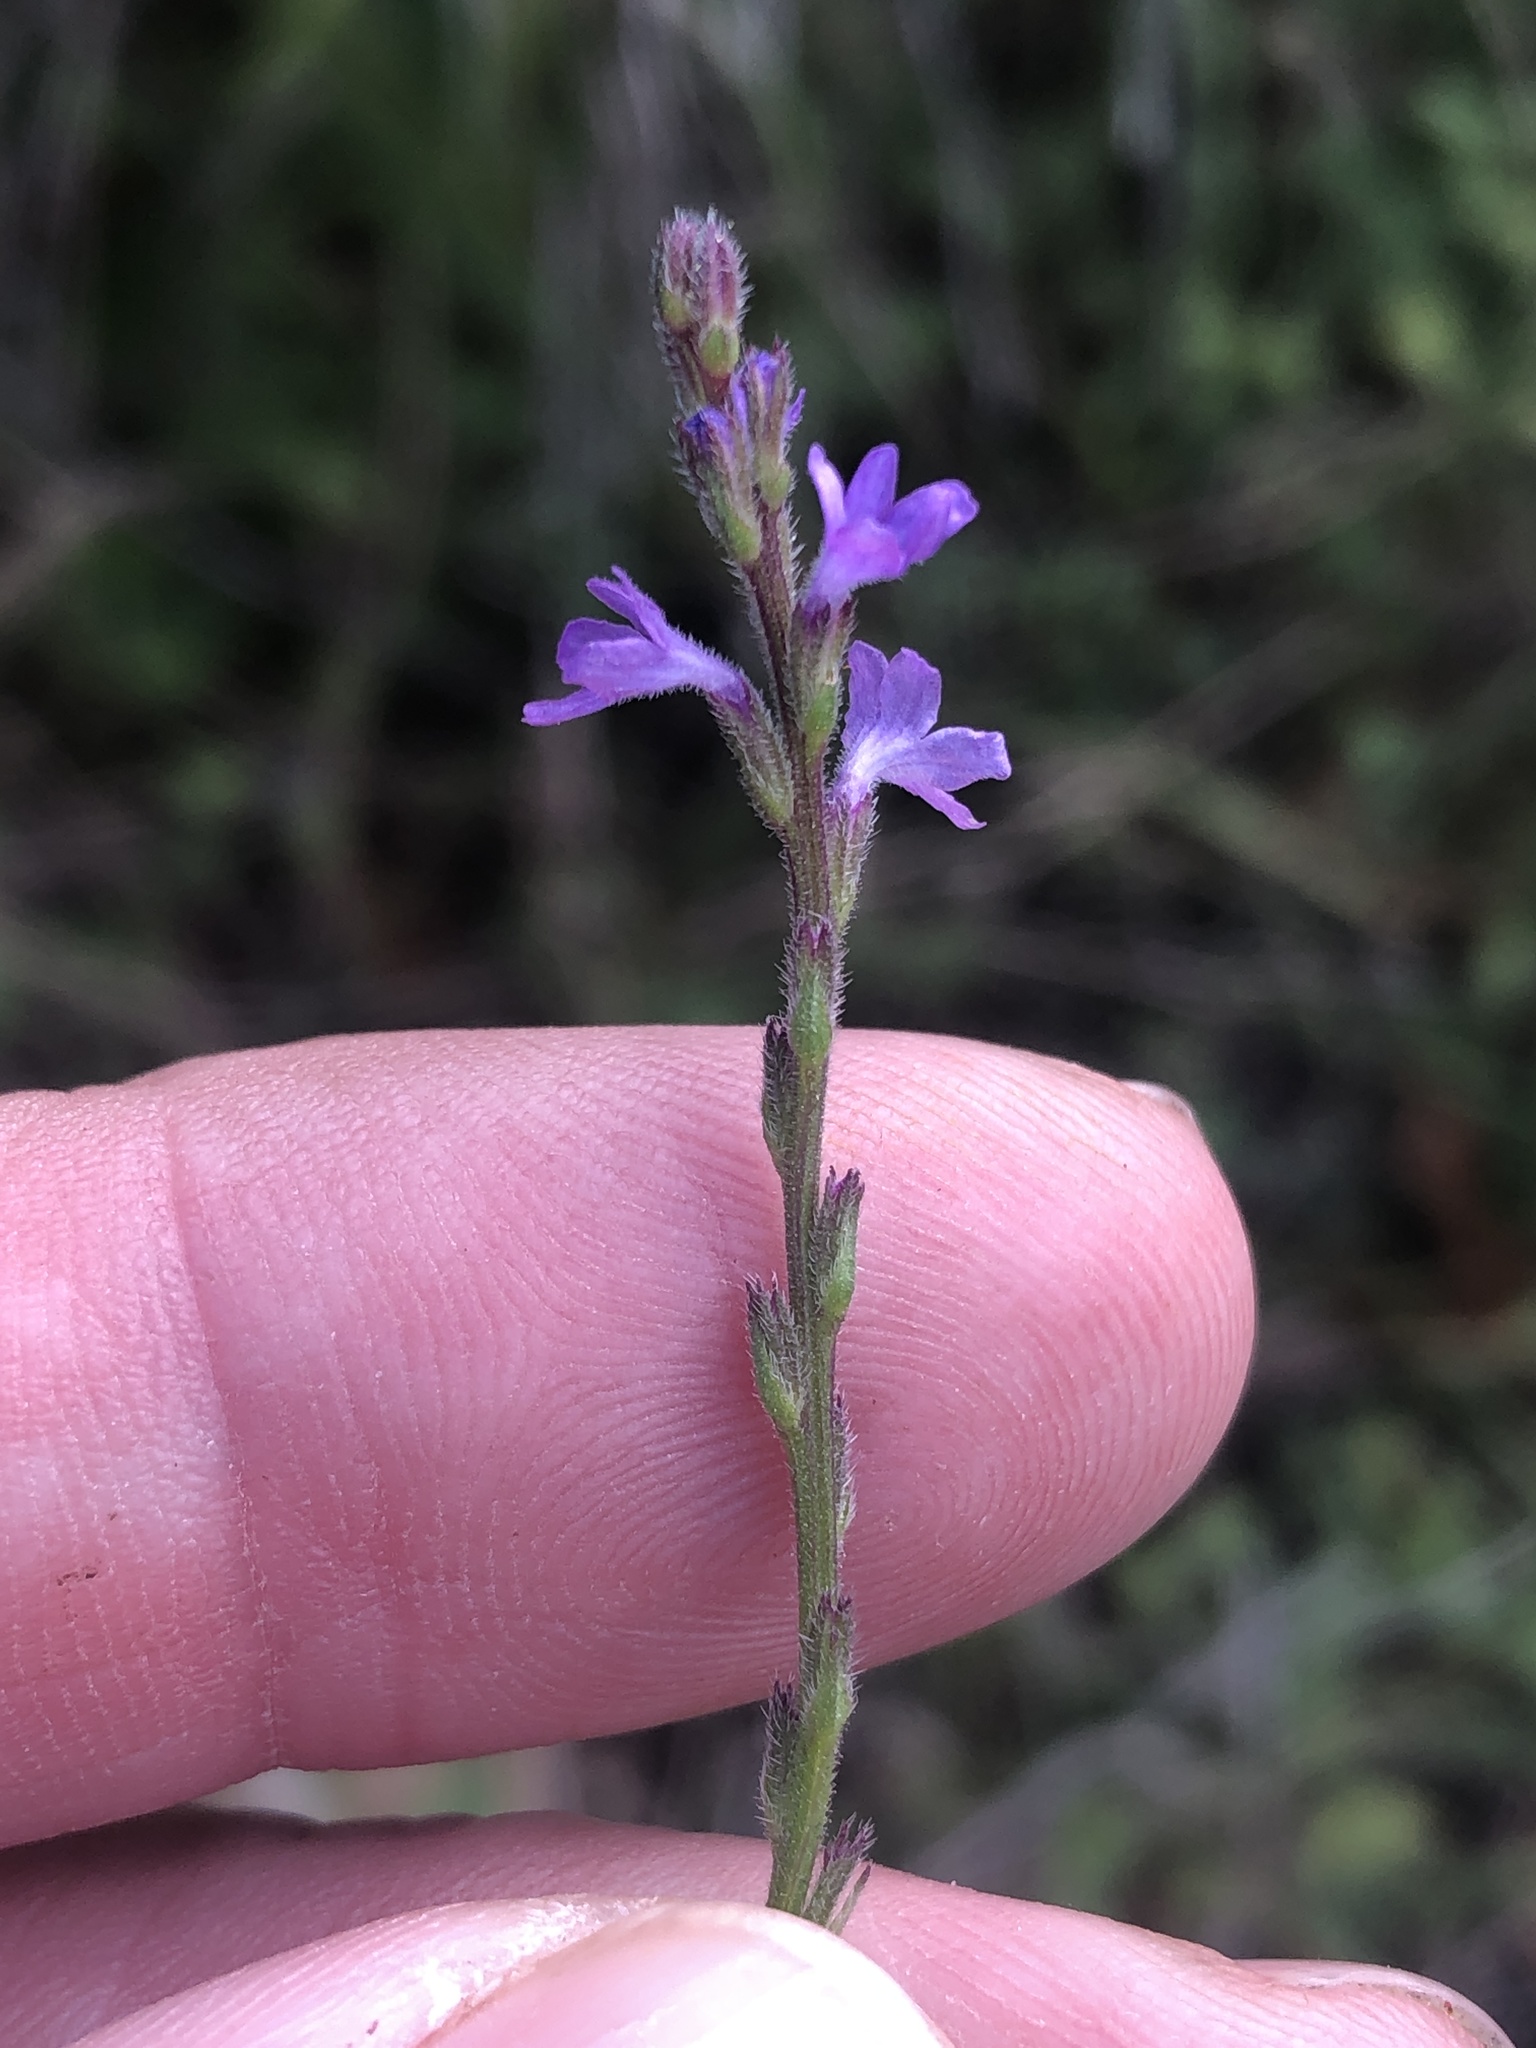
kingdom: Plantae
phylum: Tracheophyta
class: Magnoliopsida
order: Lamiales
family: Verbenaceae
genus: Verbena
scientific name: Verbena halei
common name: Texas vervain
